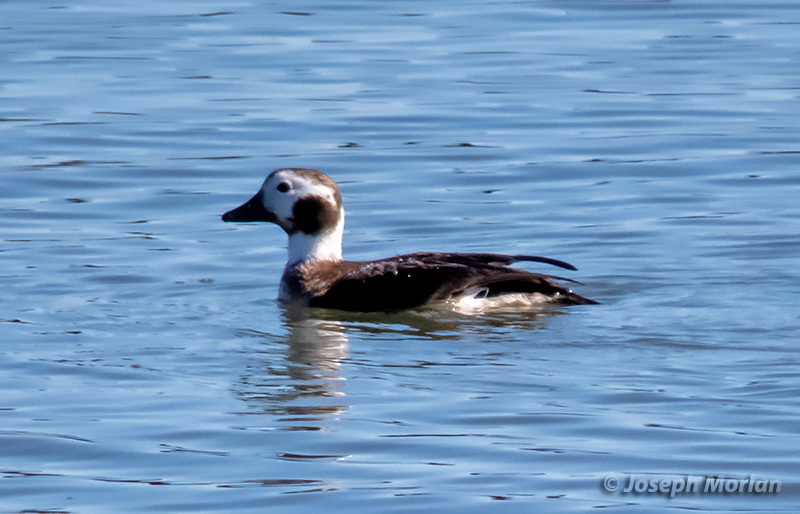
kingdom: Animalia
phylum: Chordata
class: Aves
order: Anseriformes
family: Anatidae
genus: Clangula
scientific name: Clangula hyemalis
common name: Long-tailed duck
